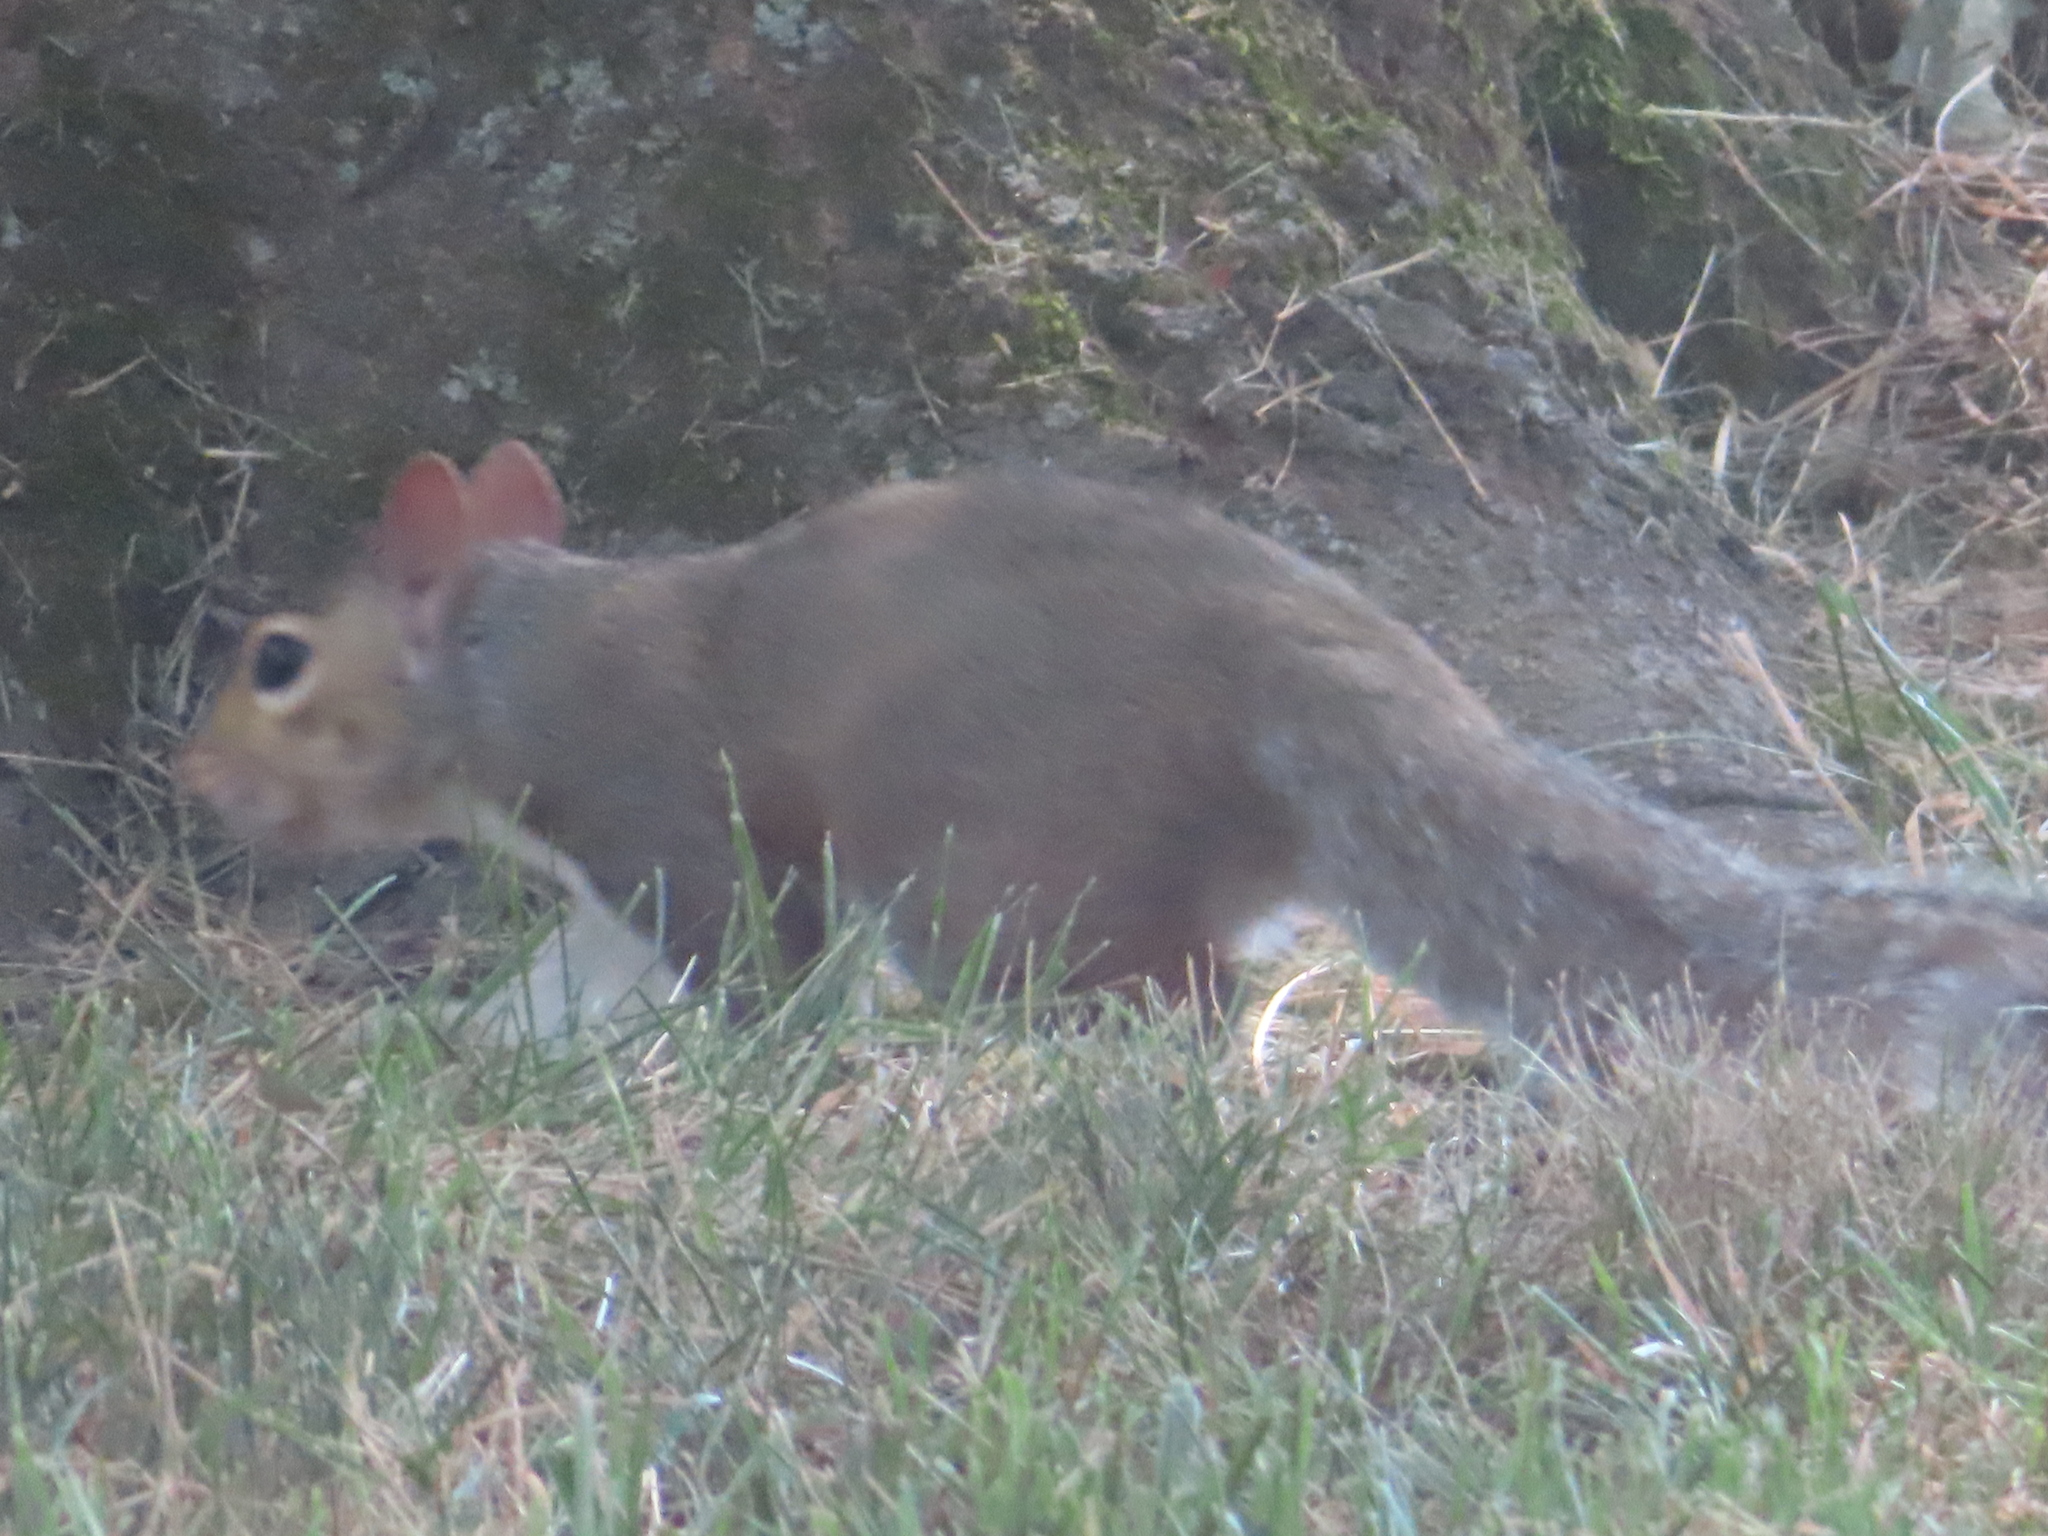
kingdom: Animalia
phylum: Chordata
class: Mammalia
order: Rodentia
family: Sciuridae
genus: Sciurus
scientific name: Sciurus carolinensis
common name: Eastern gray squirrel
